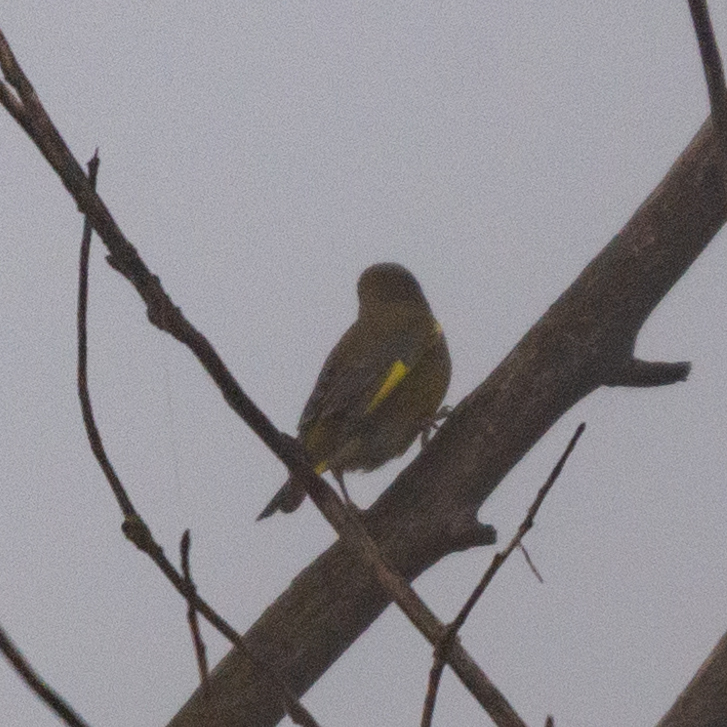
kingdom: Plantae
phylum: Tracheophyta
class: Liliopsida
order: Poales
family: Poaceae
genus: Chloris
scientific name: Chloris chloris
